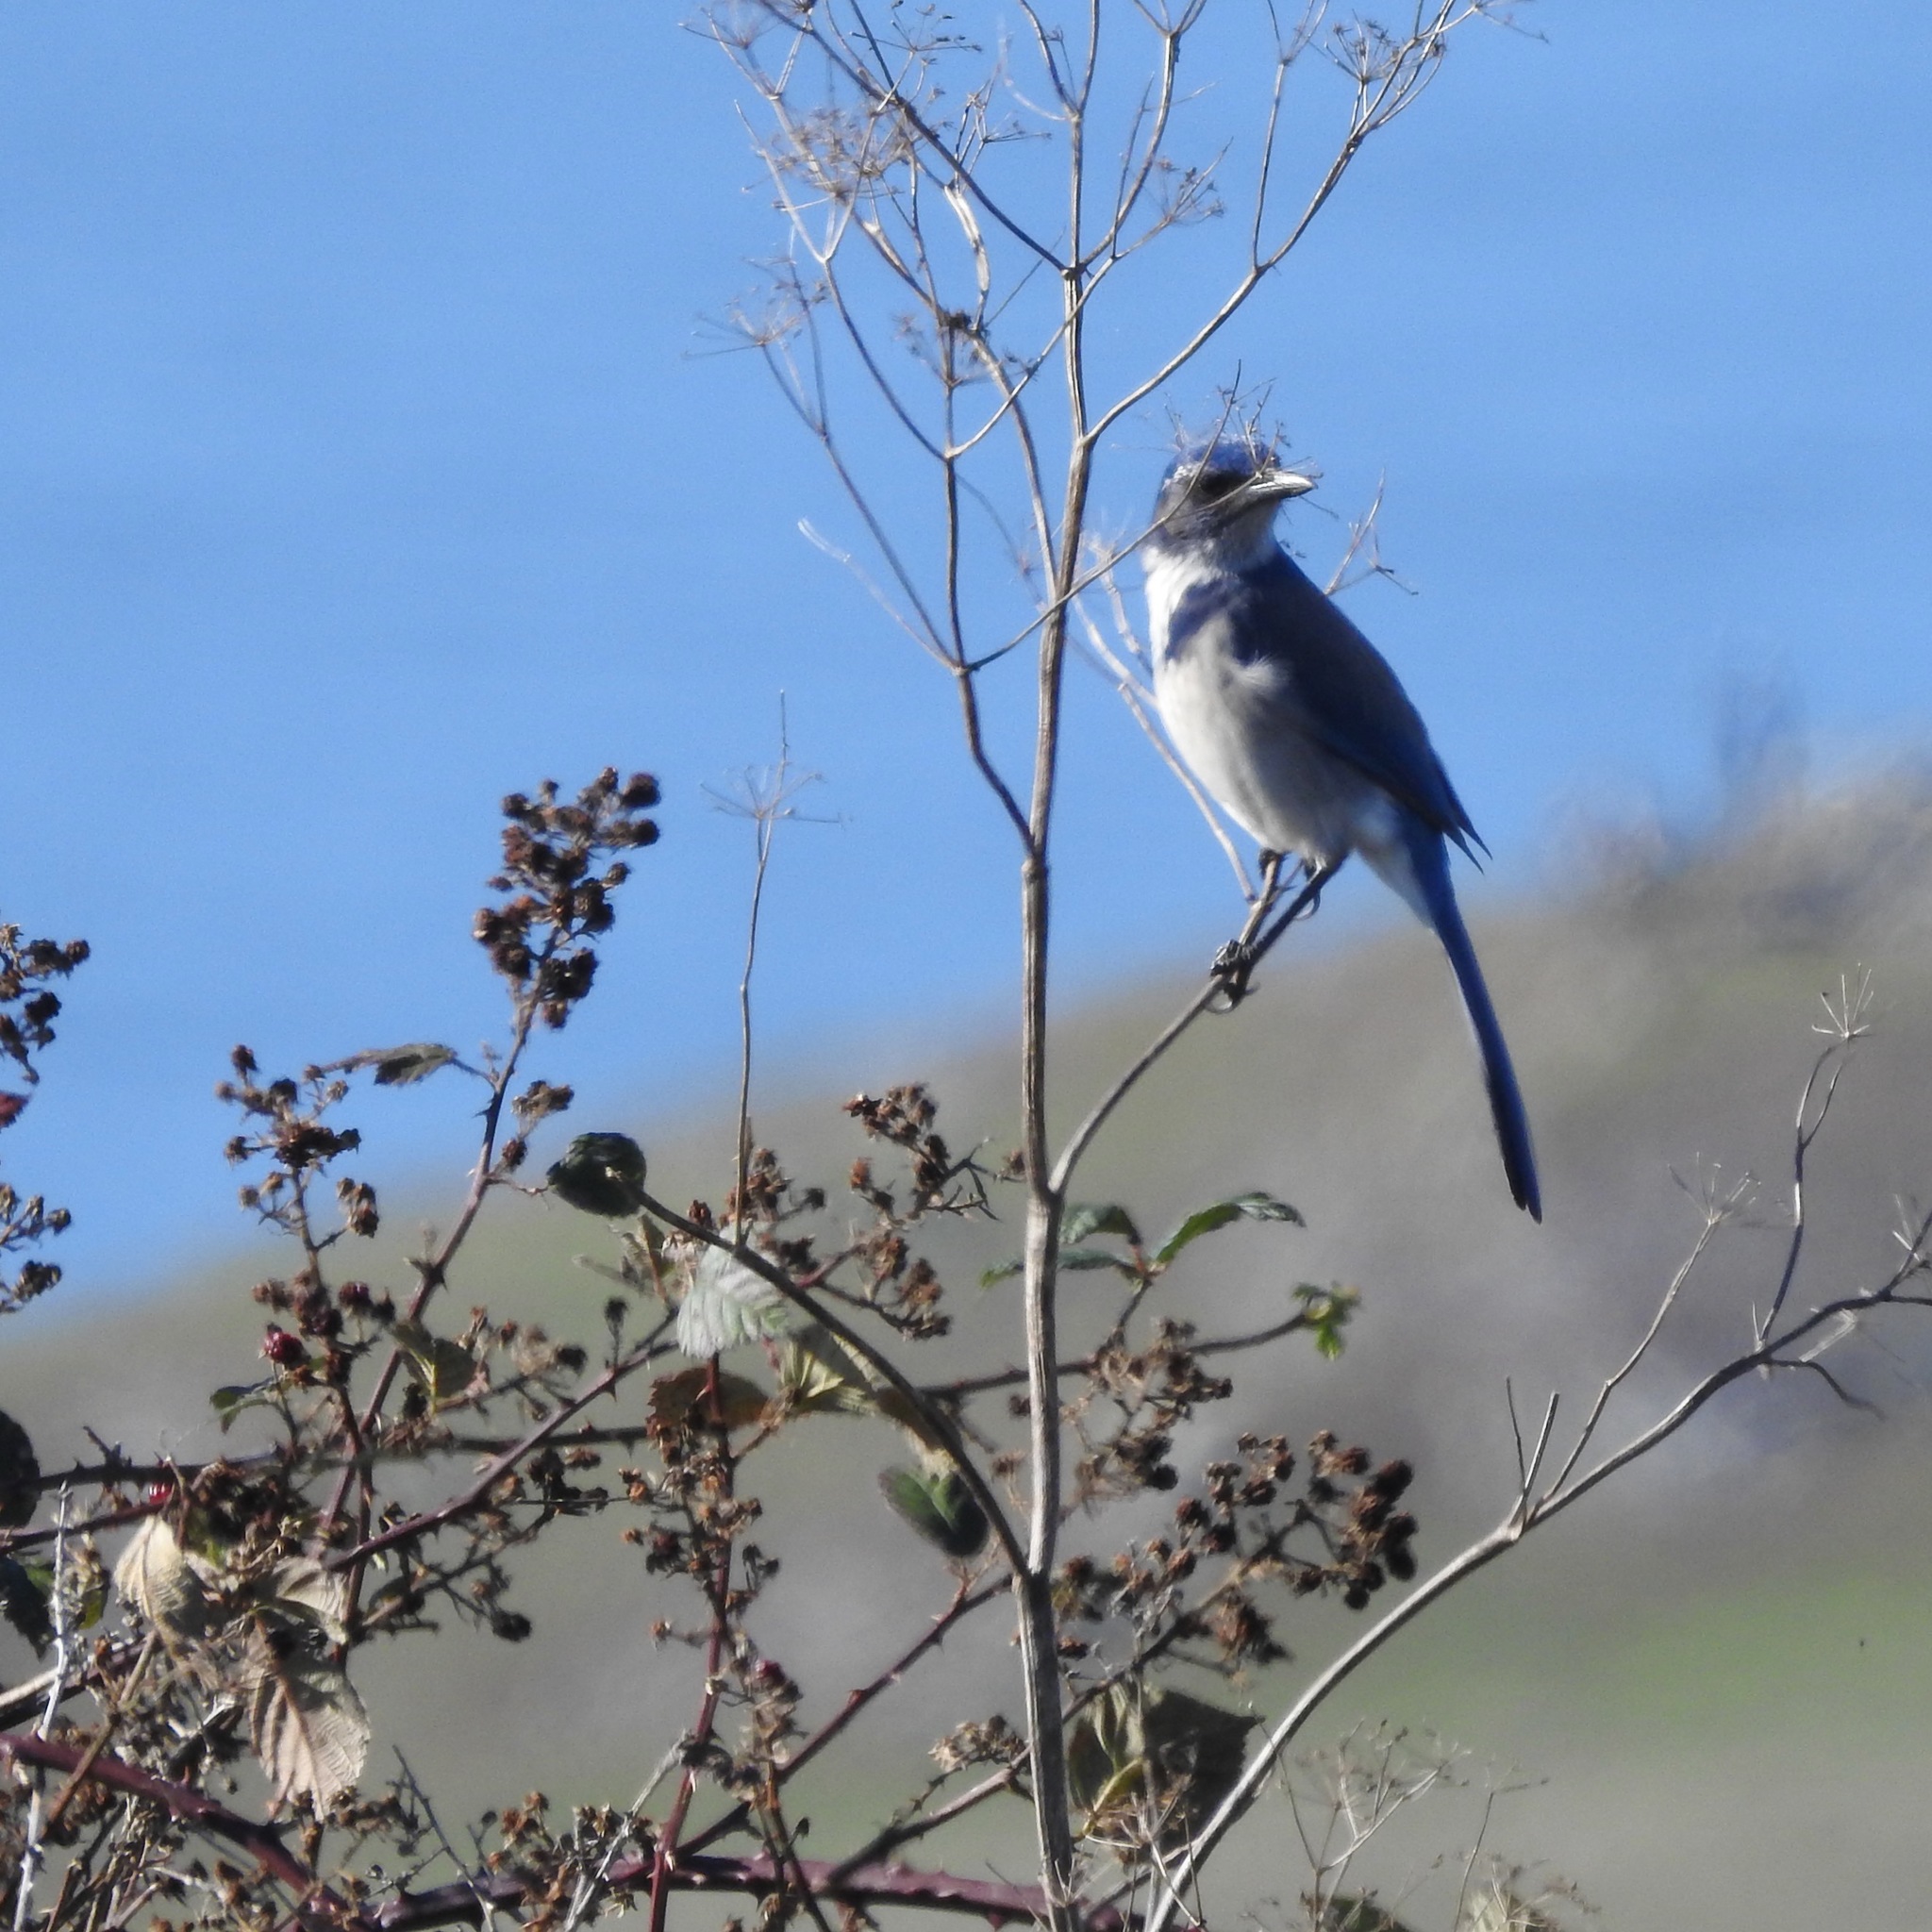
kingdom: Animalia
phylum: Chordata
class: Aves
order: Passeriformes
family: Corvidae
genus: Aphelocoma
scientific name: Aphelocoma californica
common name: California scrub-jay
